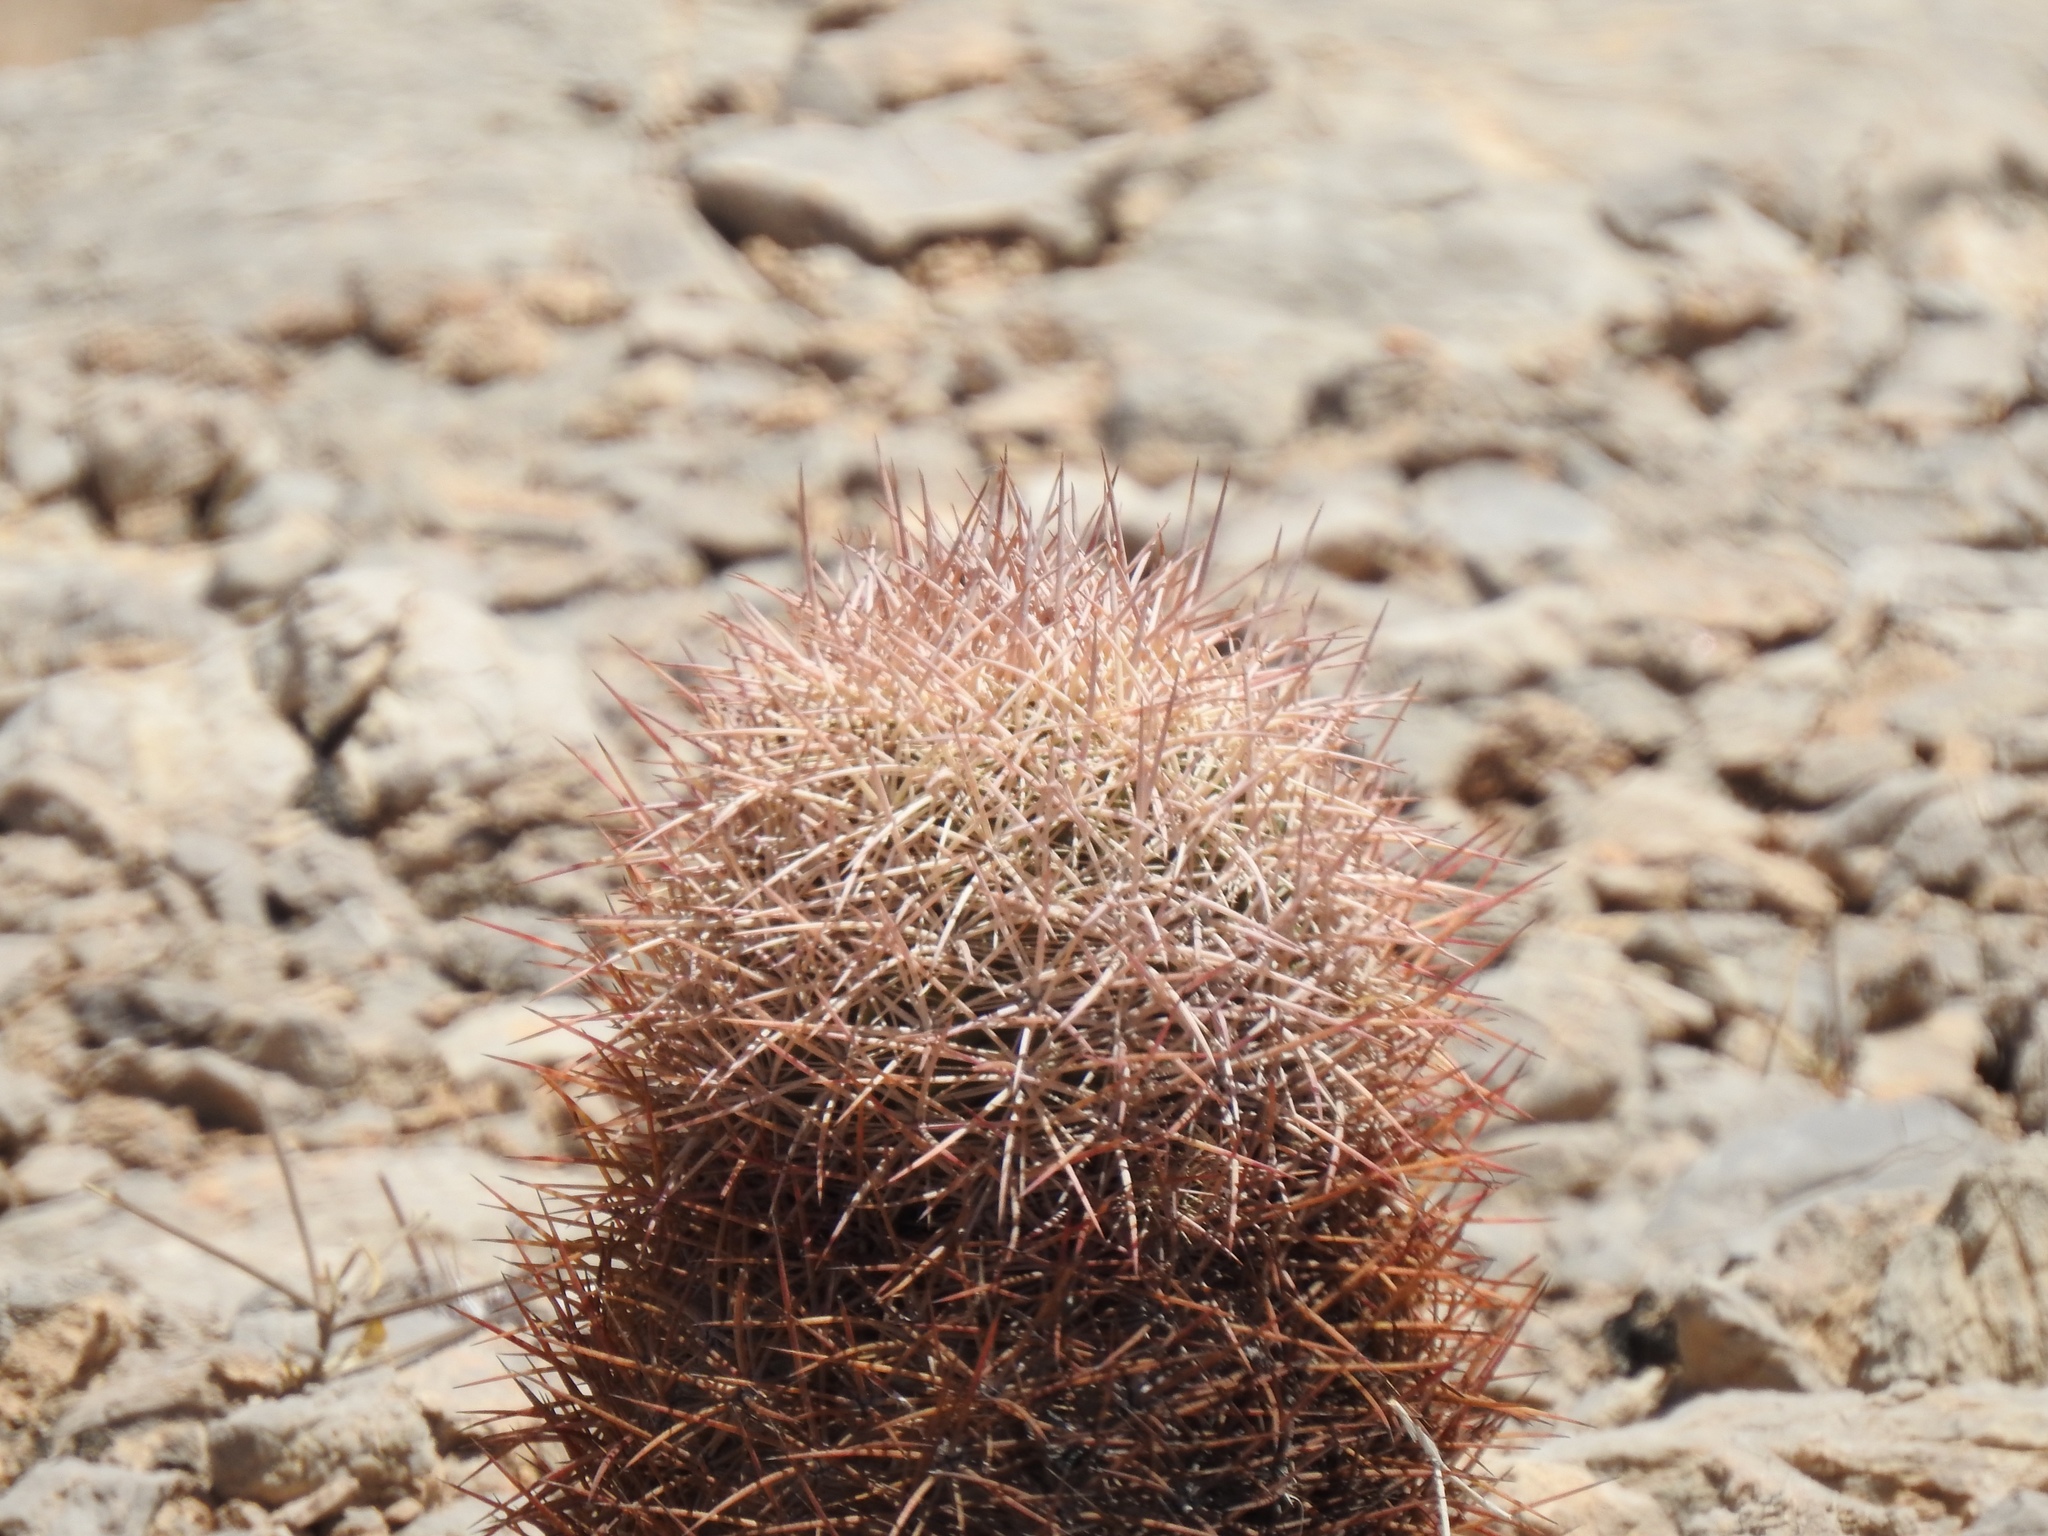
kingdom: Plantae
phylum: Tracheophyta
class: Magnoliopsida
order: Caryophyllales
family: Cactaceae
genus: Sclerocactus
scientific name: Sclerocactus johnsonii
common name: Eight-spine fishhook cactus
